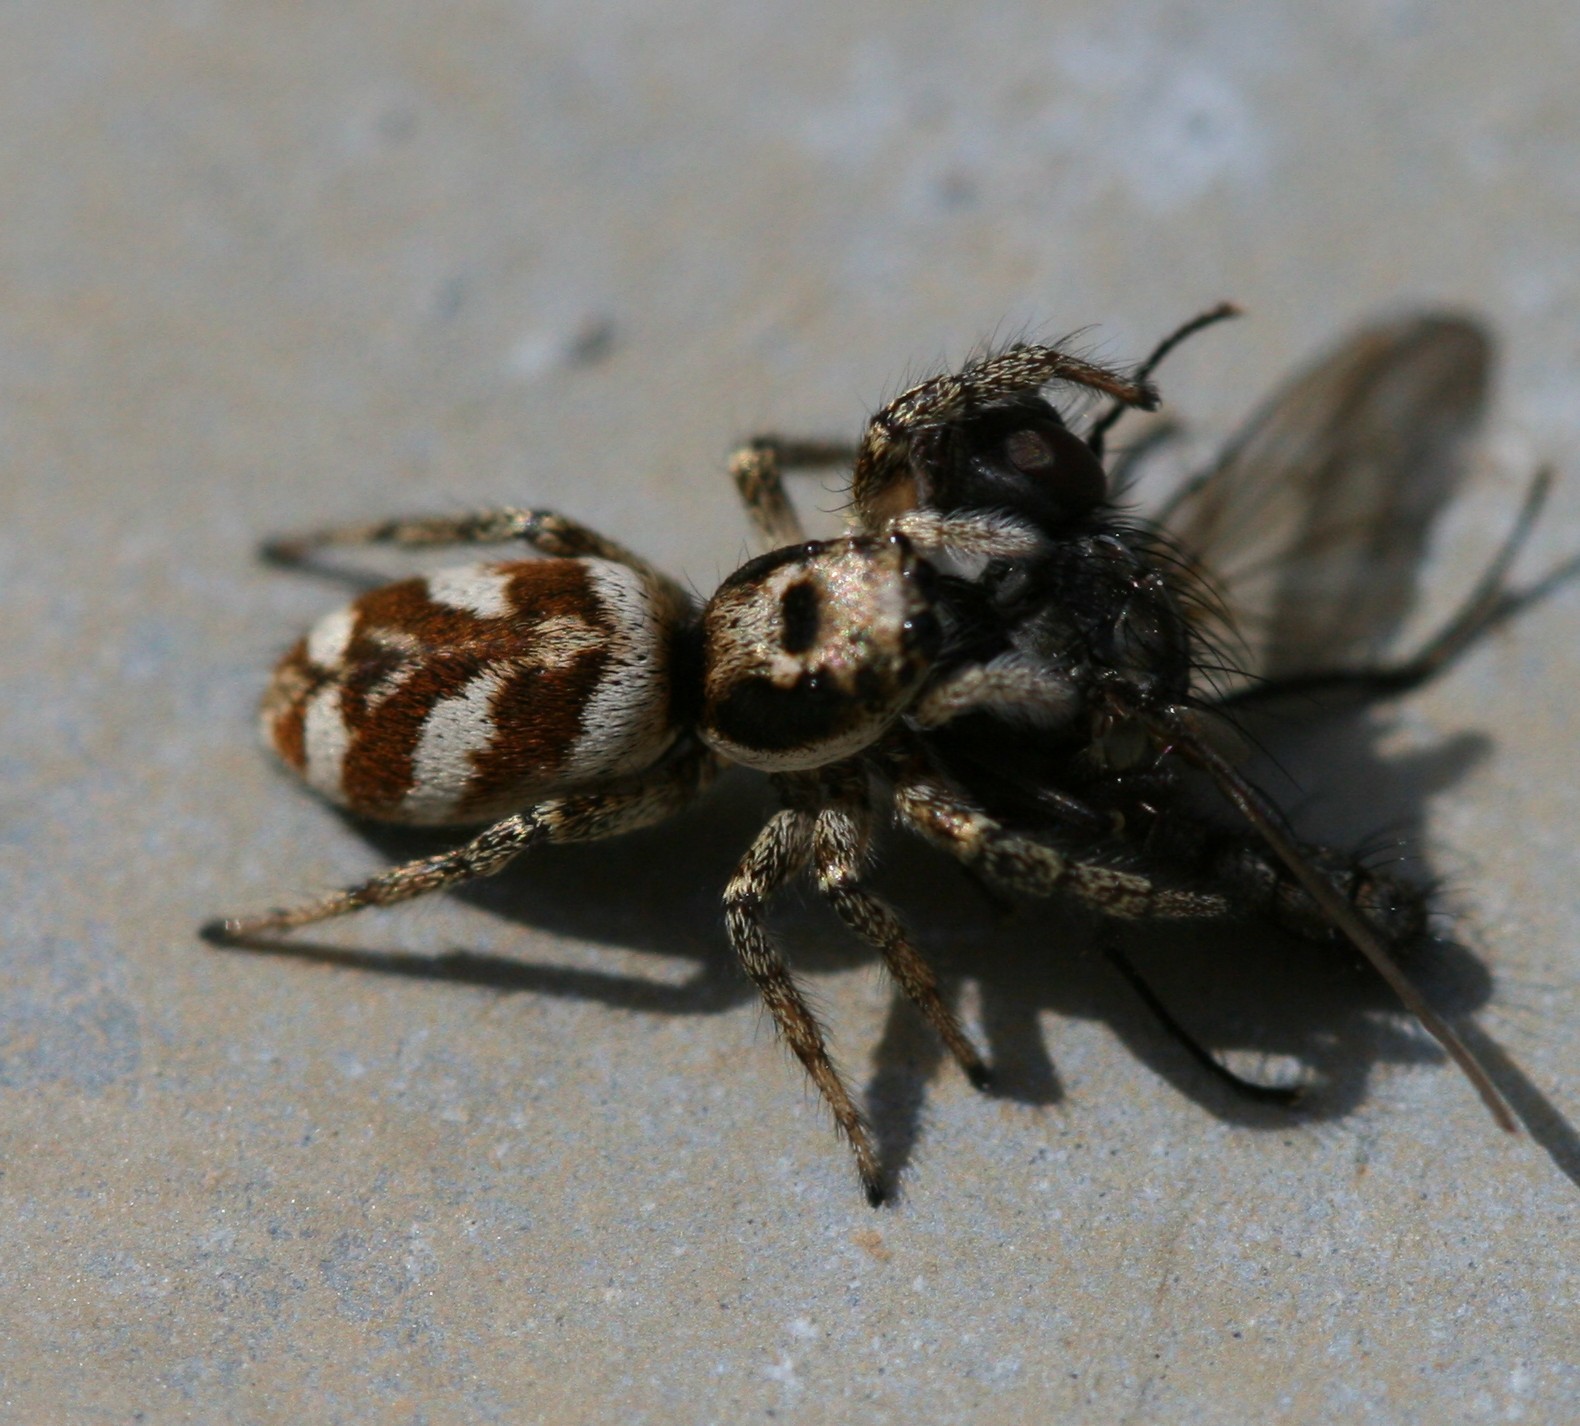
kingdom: Animalia
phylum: Arthropoda
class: Arachnida
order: Araneae
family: Salticidae
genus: Salticus
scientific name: Salticus scenicus
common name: Zebra jumper
